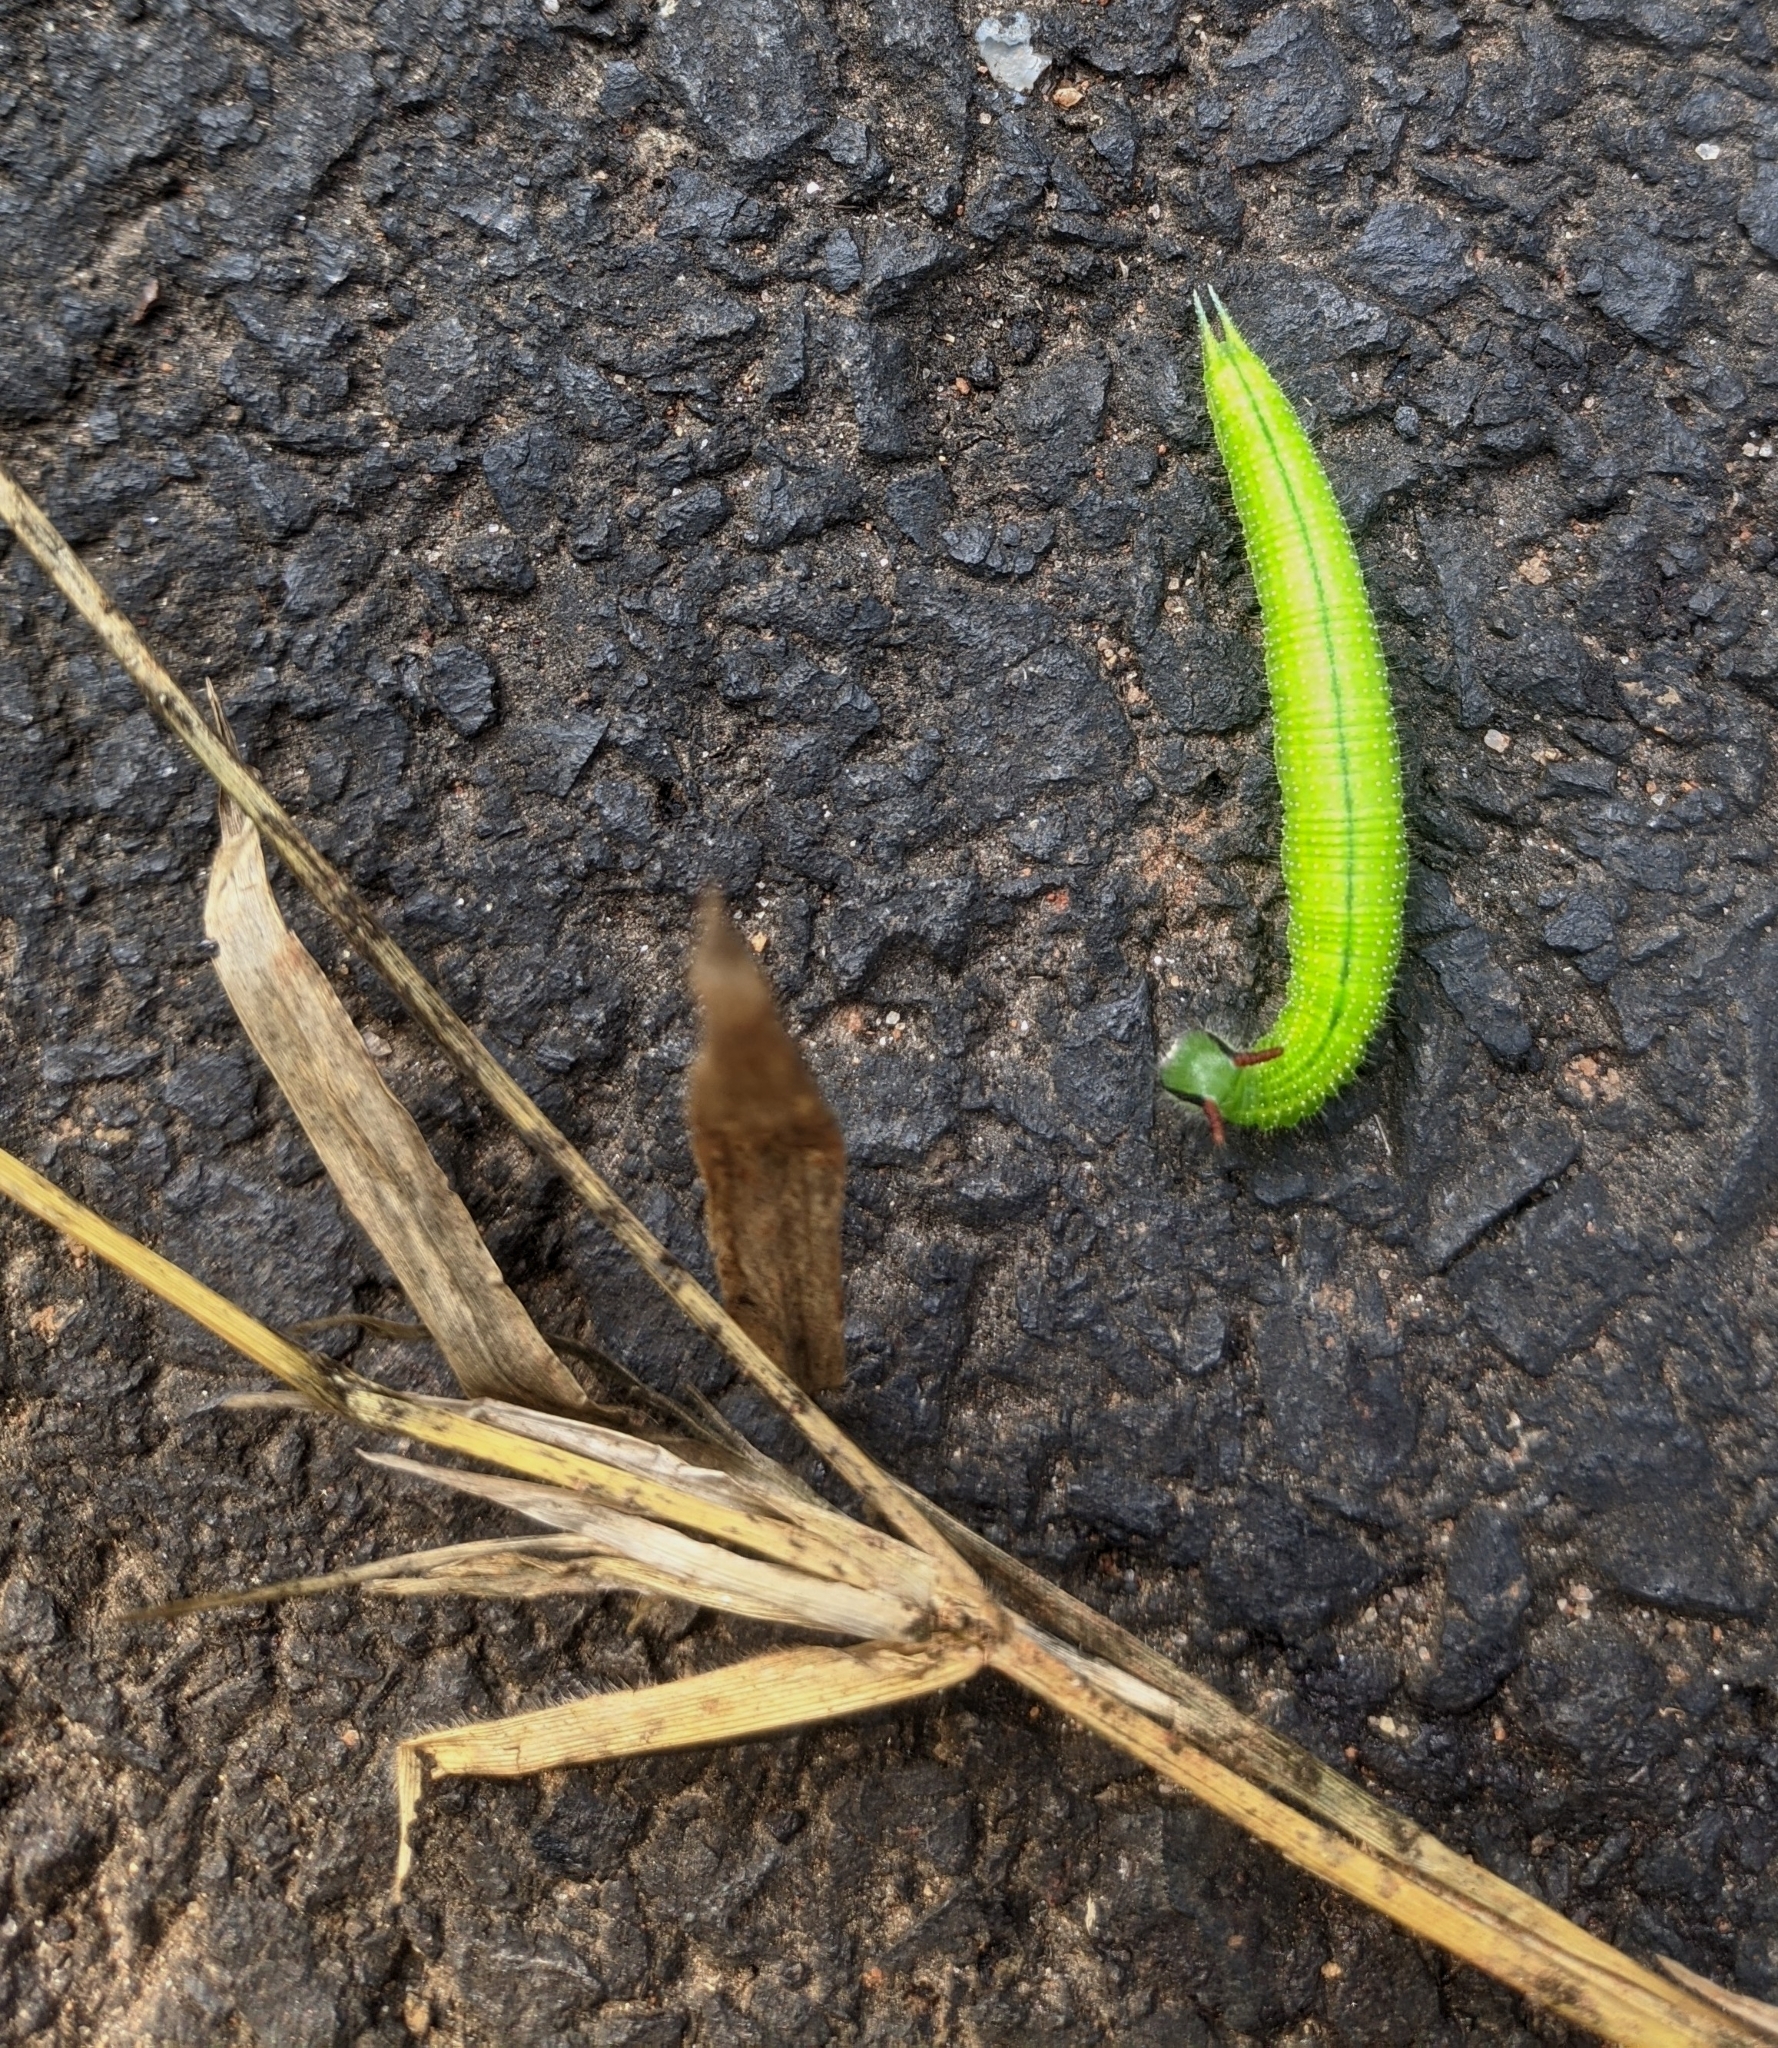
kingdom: Animalia
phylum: Arthropoda
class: Insecta
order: Lepidoptera
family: Nymphalidae
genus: Melanitis
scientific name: Melanitis leda
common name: Twilight brown
